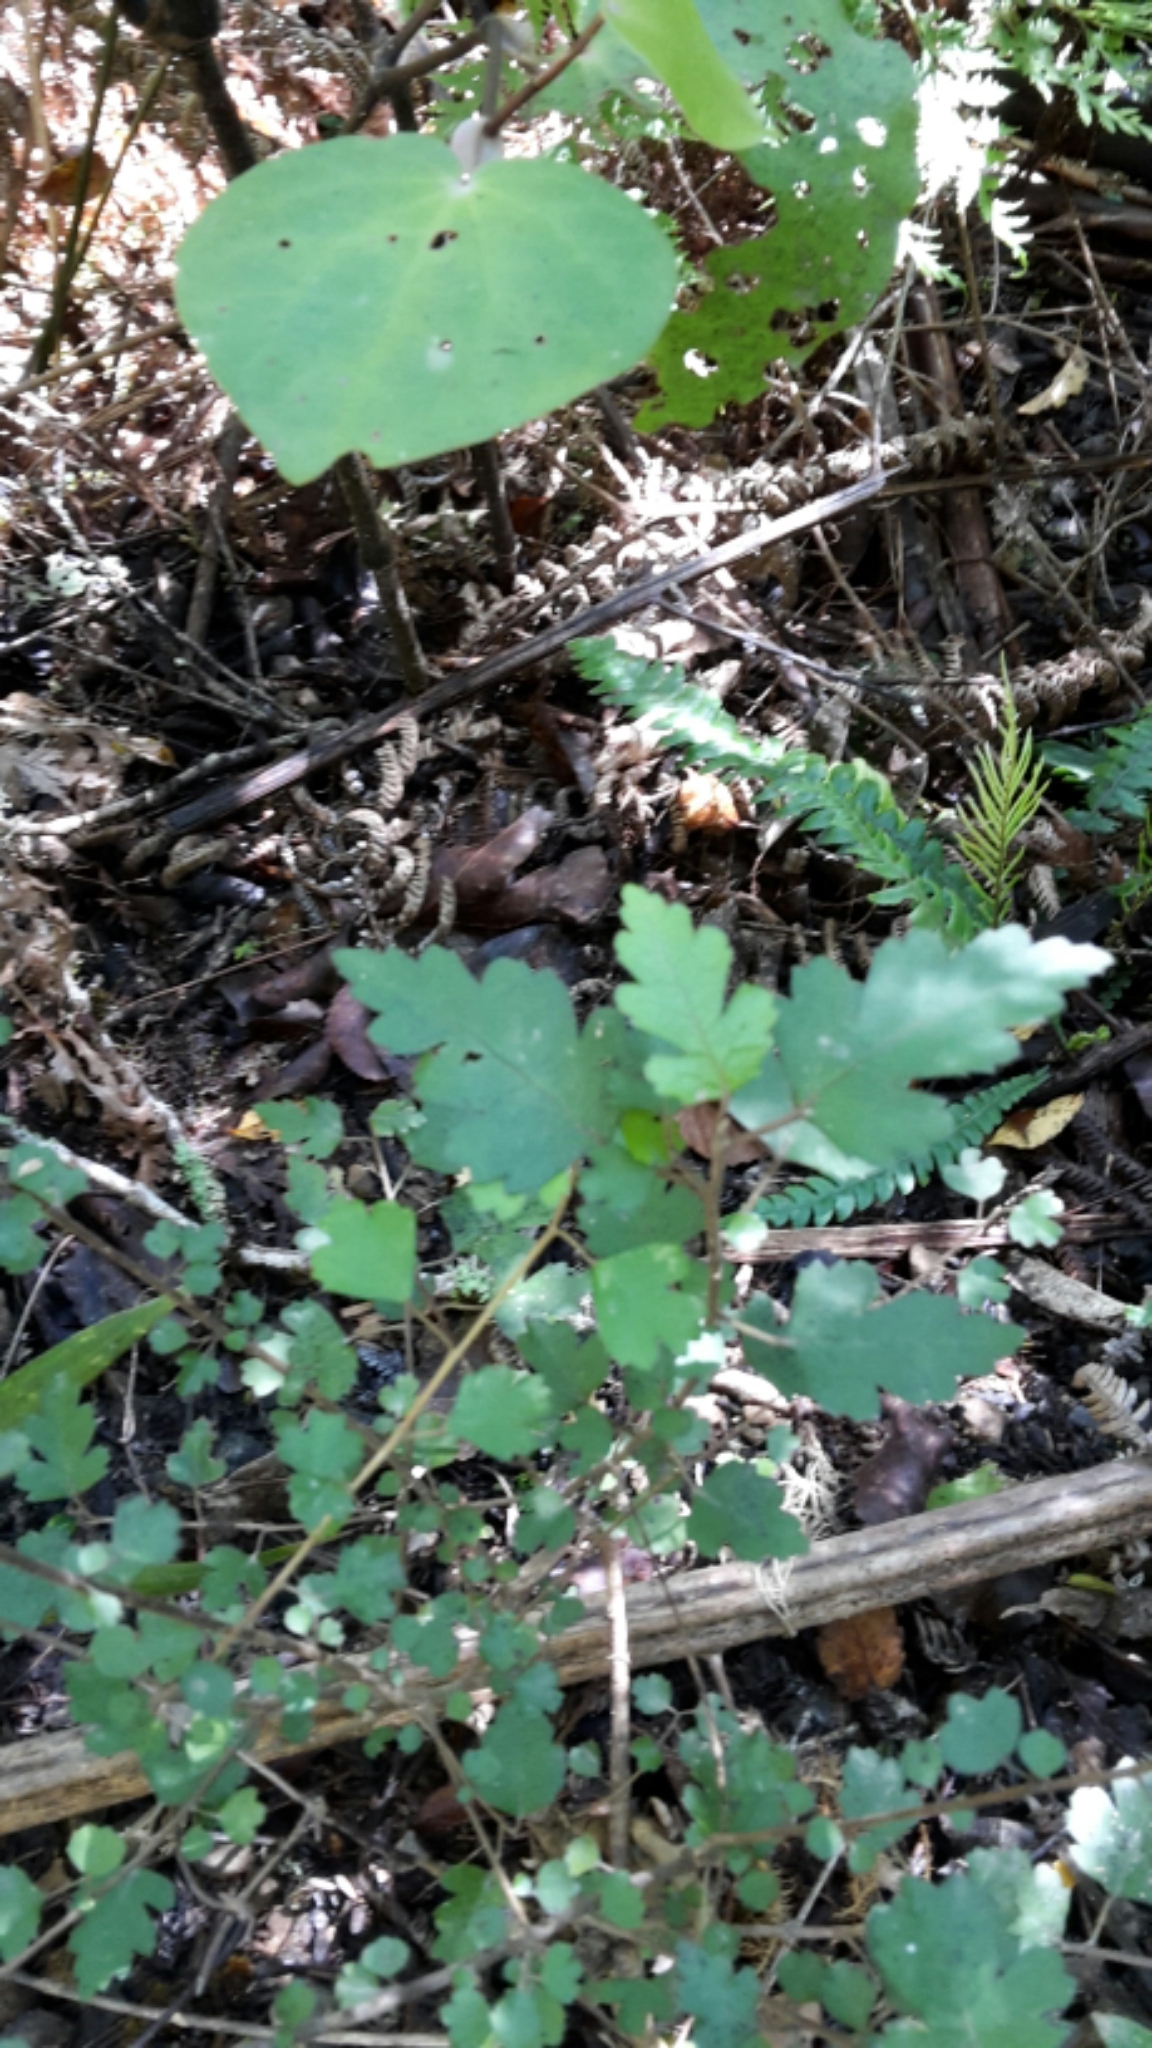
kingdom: Plantae
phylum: Tracheophyta
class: Magnoliopsida
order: Malvales
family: Malvaceae
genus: Plagianthus
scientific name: Plagianthus regius
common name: Manatu
